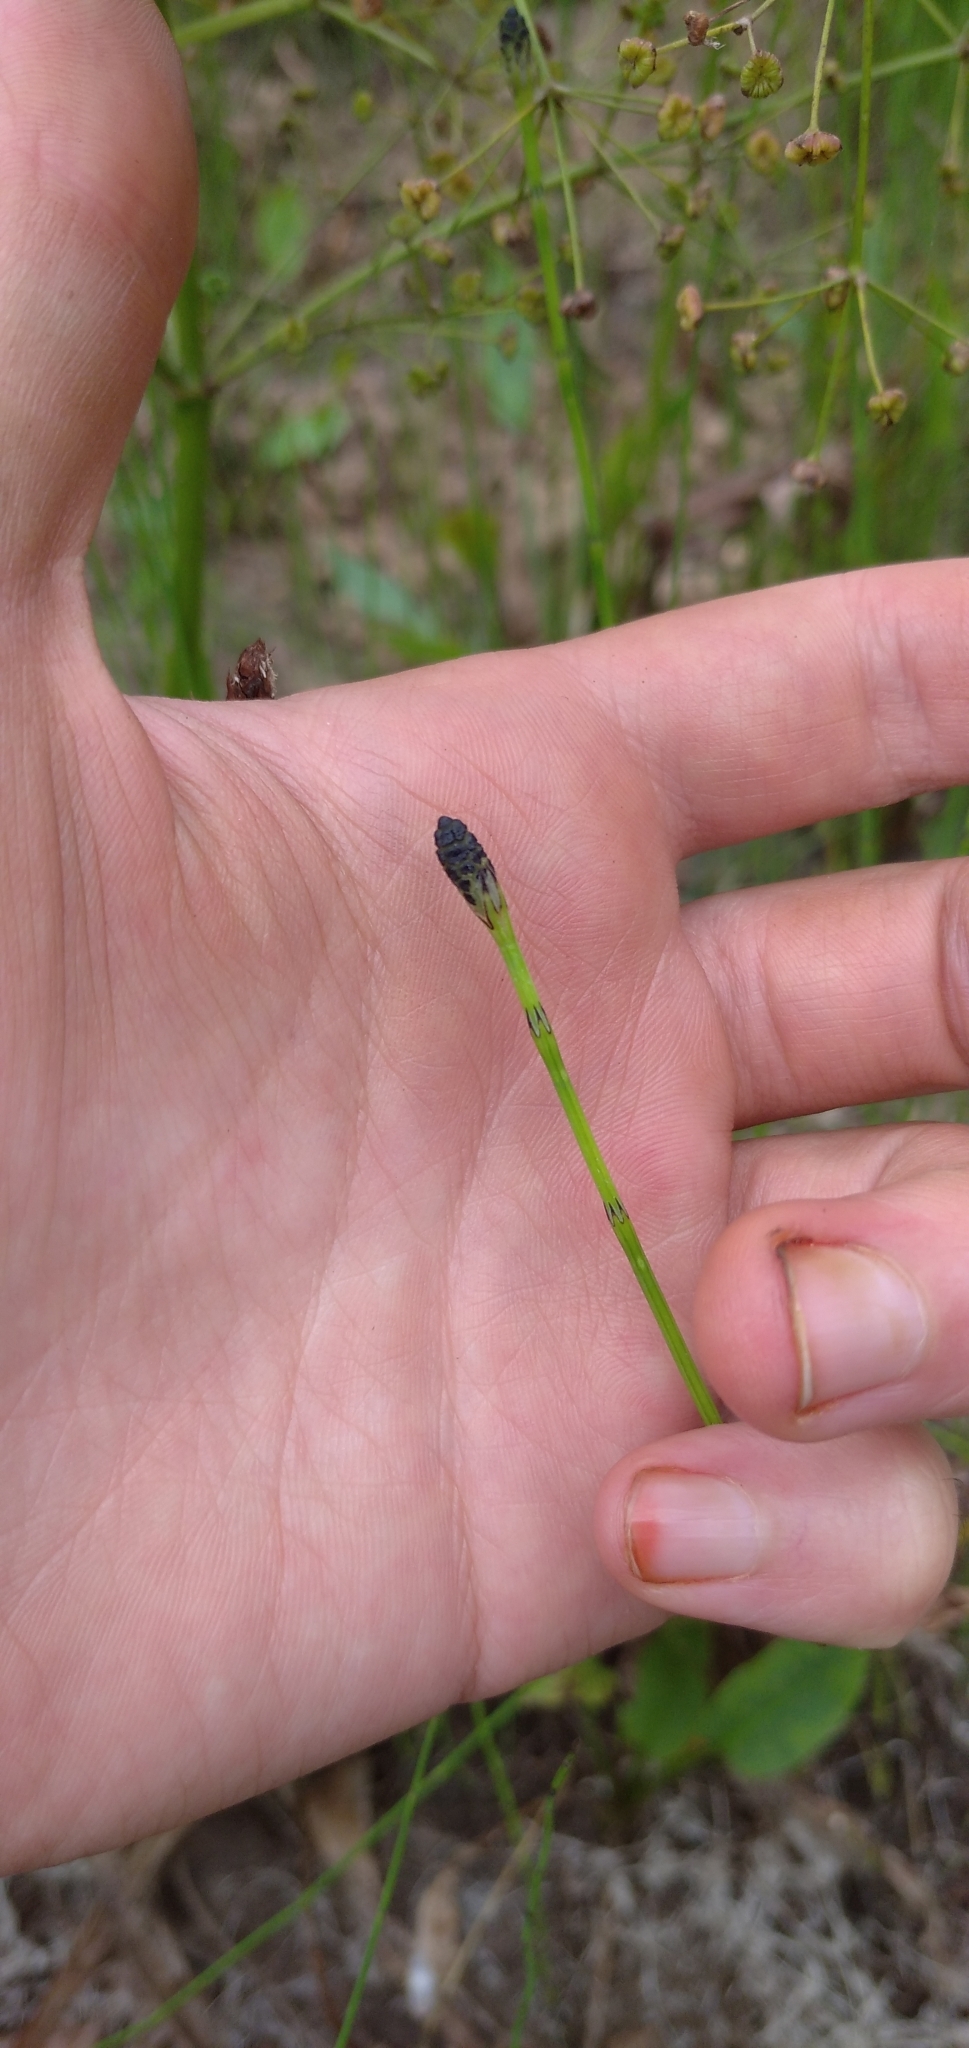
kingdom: Plantae
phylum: Tracheophyta
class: Polypodiopsida
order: Equisetales
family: Equisetaceae
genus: Equisetum
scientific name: Equisetum palustre
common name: Marsh horsetail
